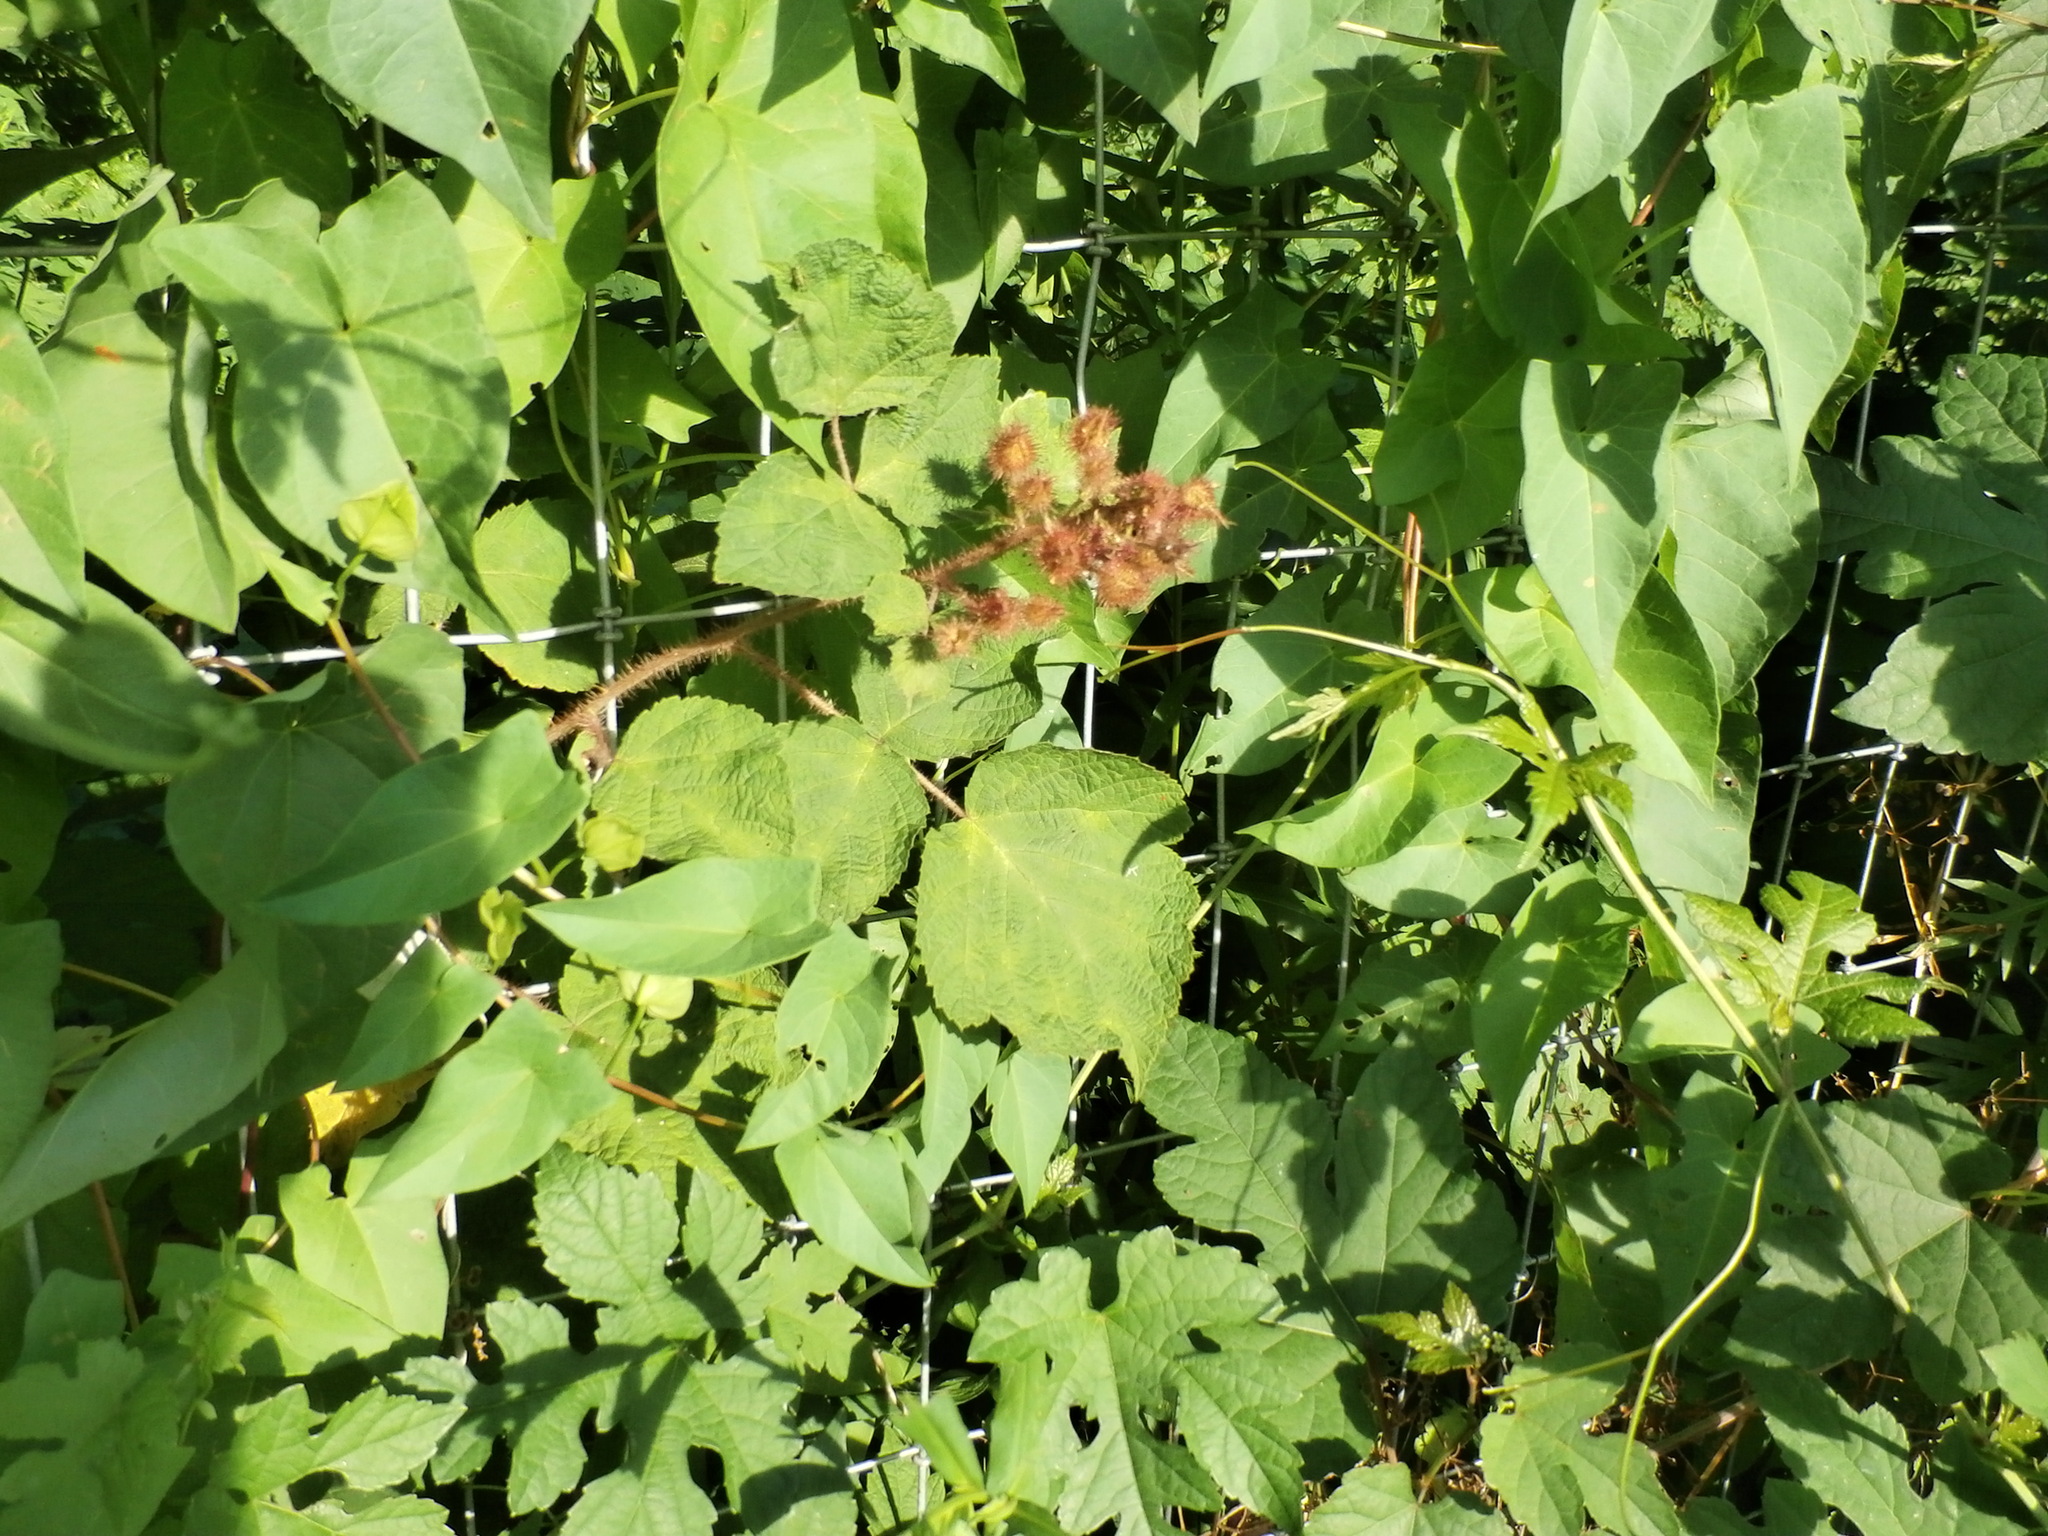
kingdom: Plantae
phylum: Tracheophyta
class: Magnoliopsida
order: Rosales
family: Rosaceae
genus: Rubus
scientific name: Rubus phoenicolasius
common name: Japanese wineberry
